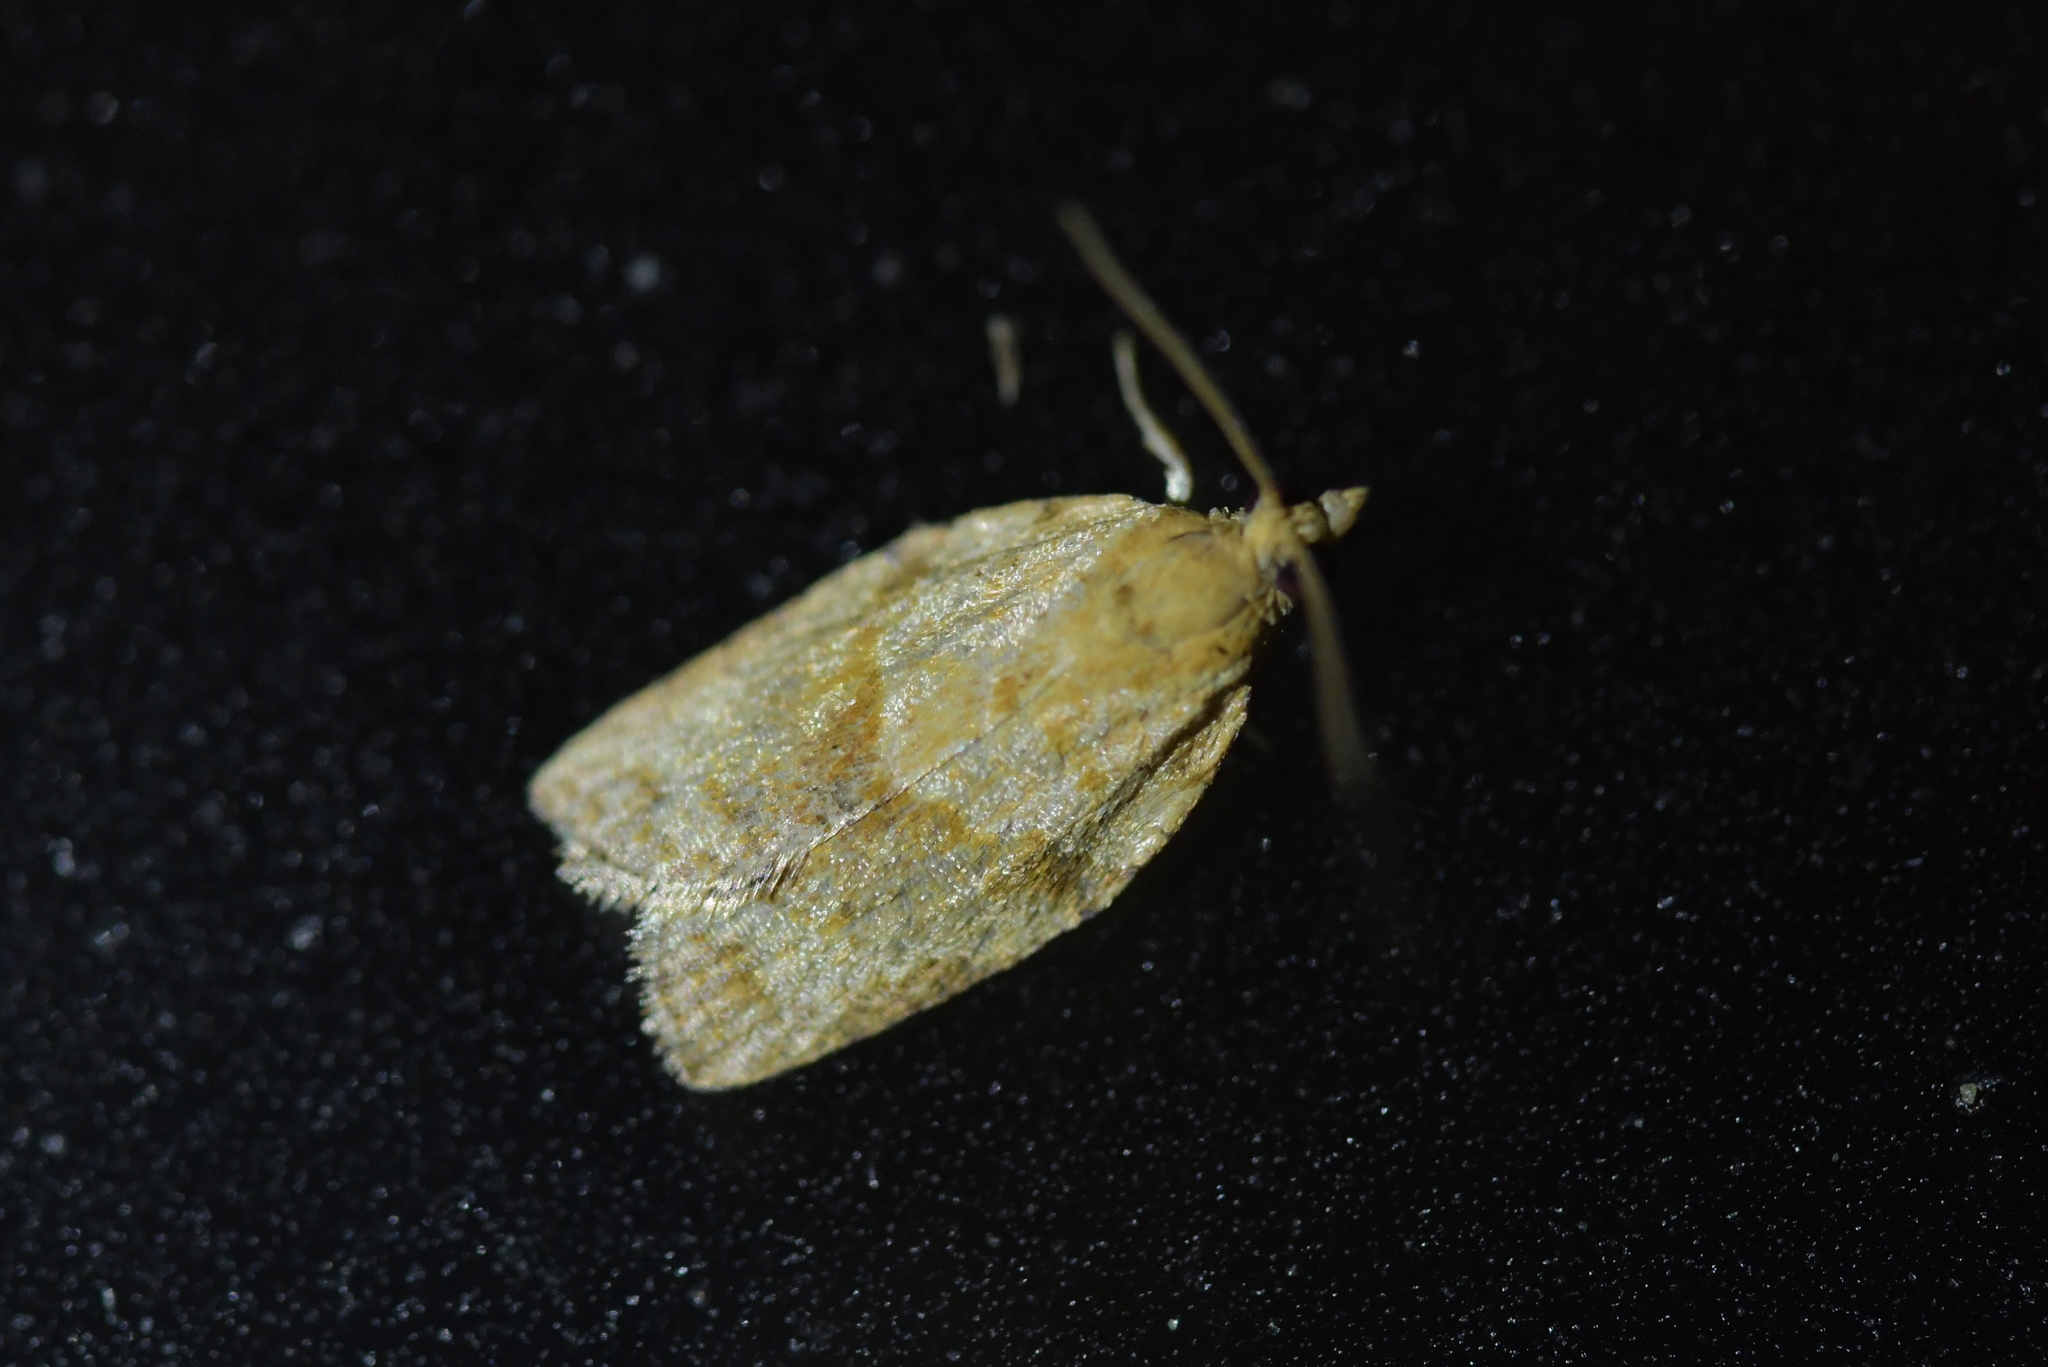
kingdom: Animalia
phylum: Arthropoda
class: Insecta
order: Lepidoptera
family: Tortricidae
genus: Epiphyas
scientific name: Epiphyas postvittana
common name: Light brown apple moth
